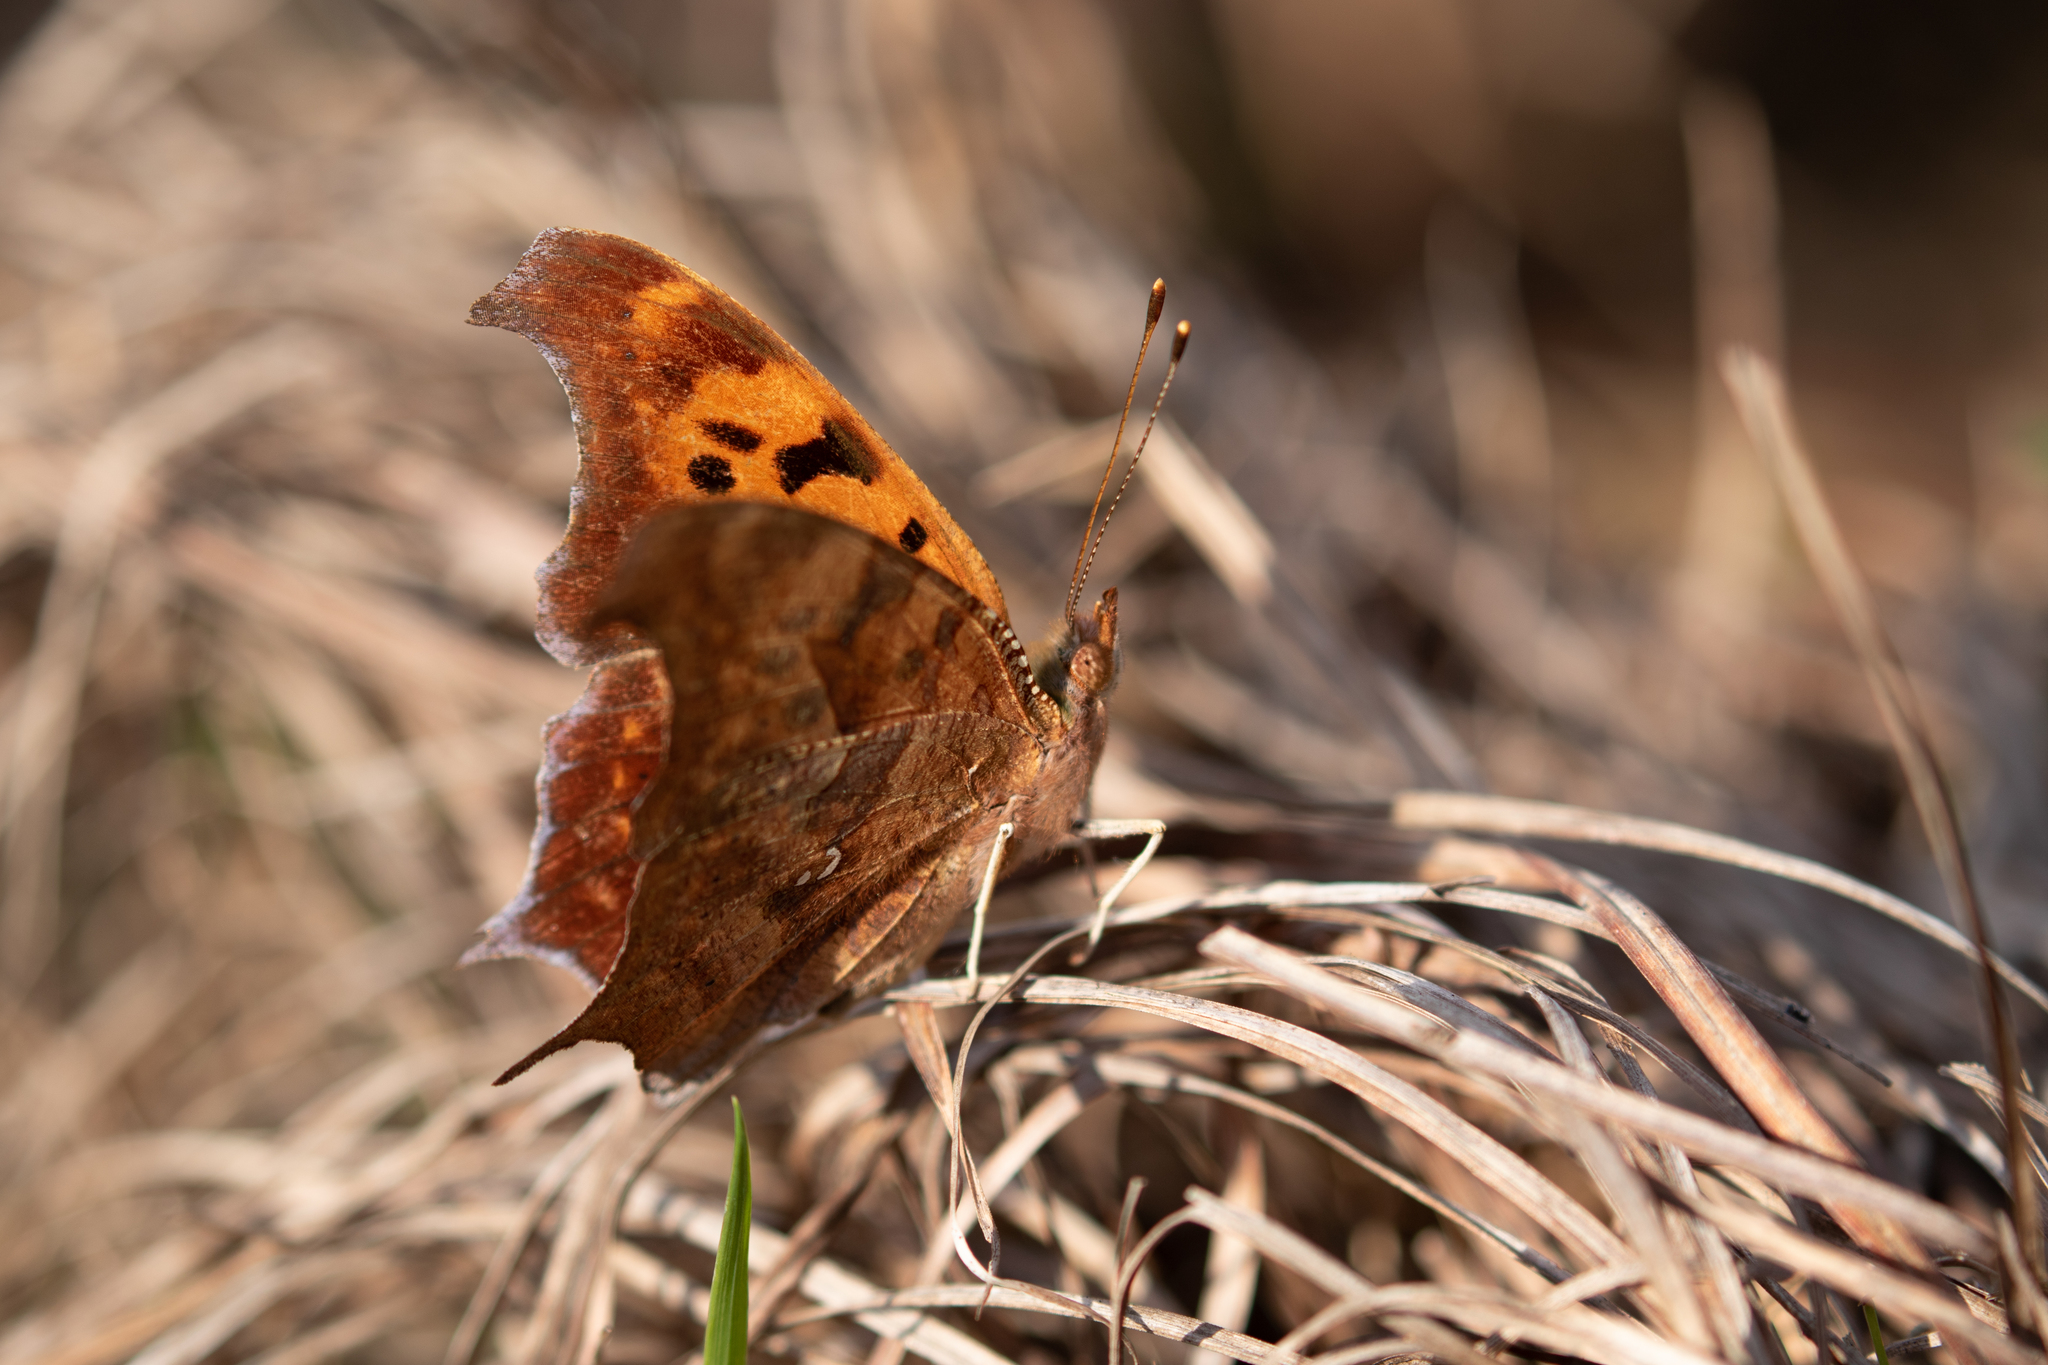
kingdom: Animalia
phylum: Arthropoda
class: Insecta
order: Lepidoptera
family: Nymphalidae
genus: Polygonia
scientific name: Polygonia interrogationis
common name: Question mark
